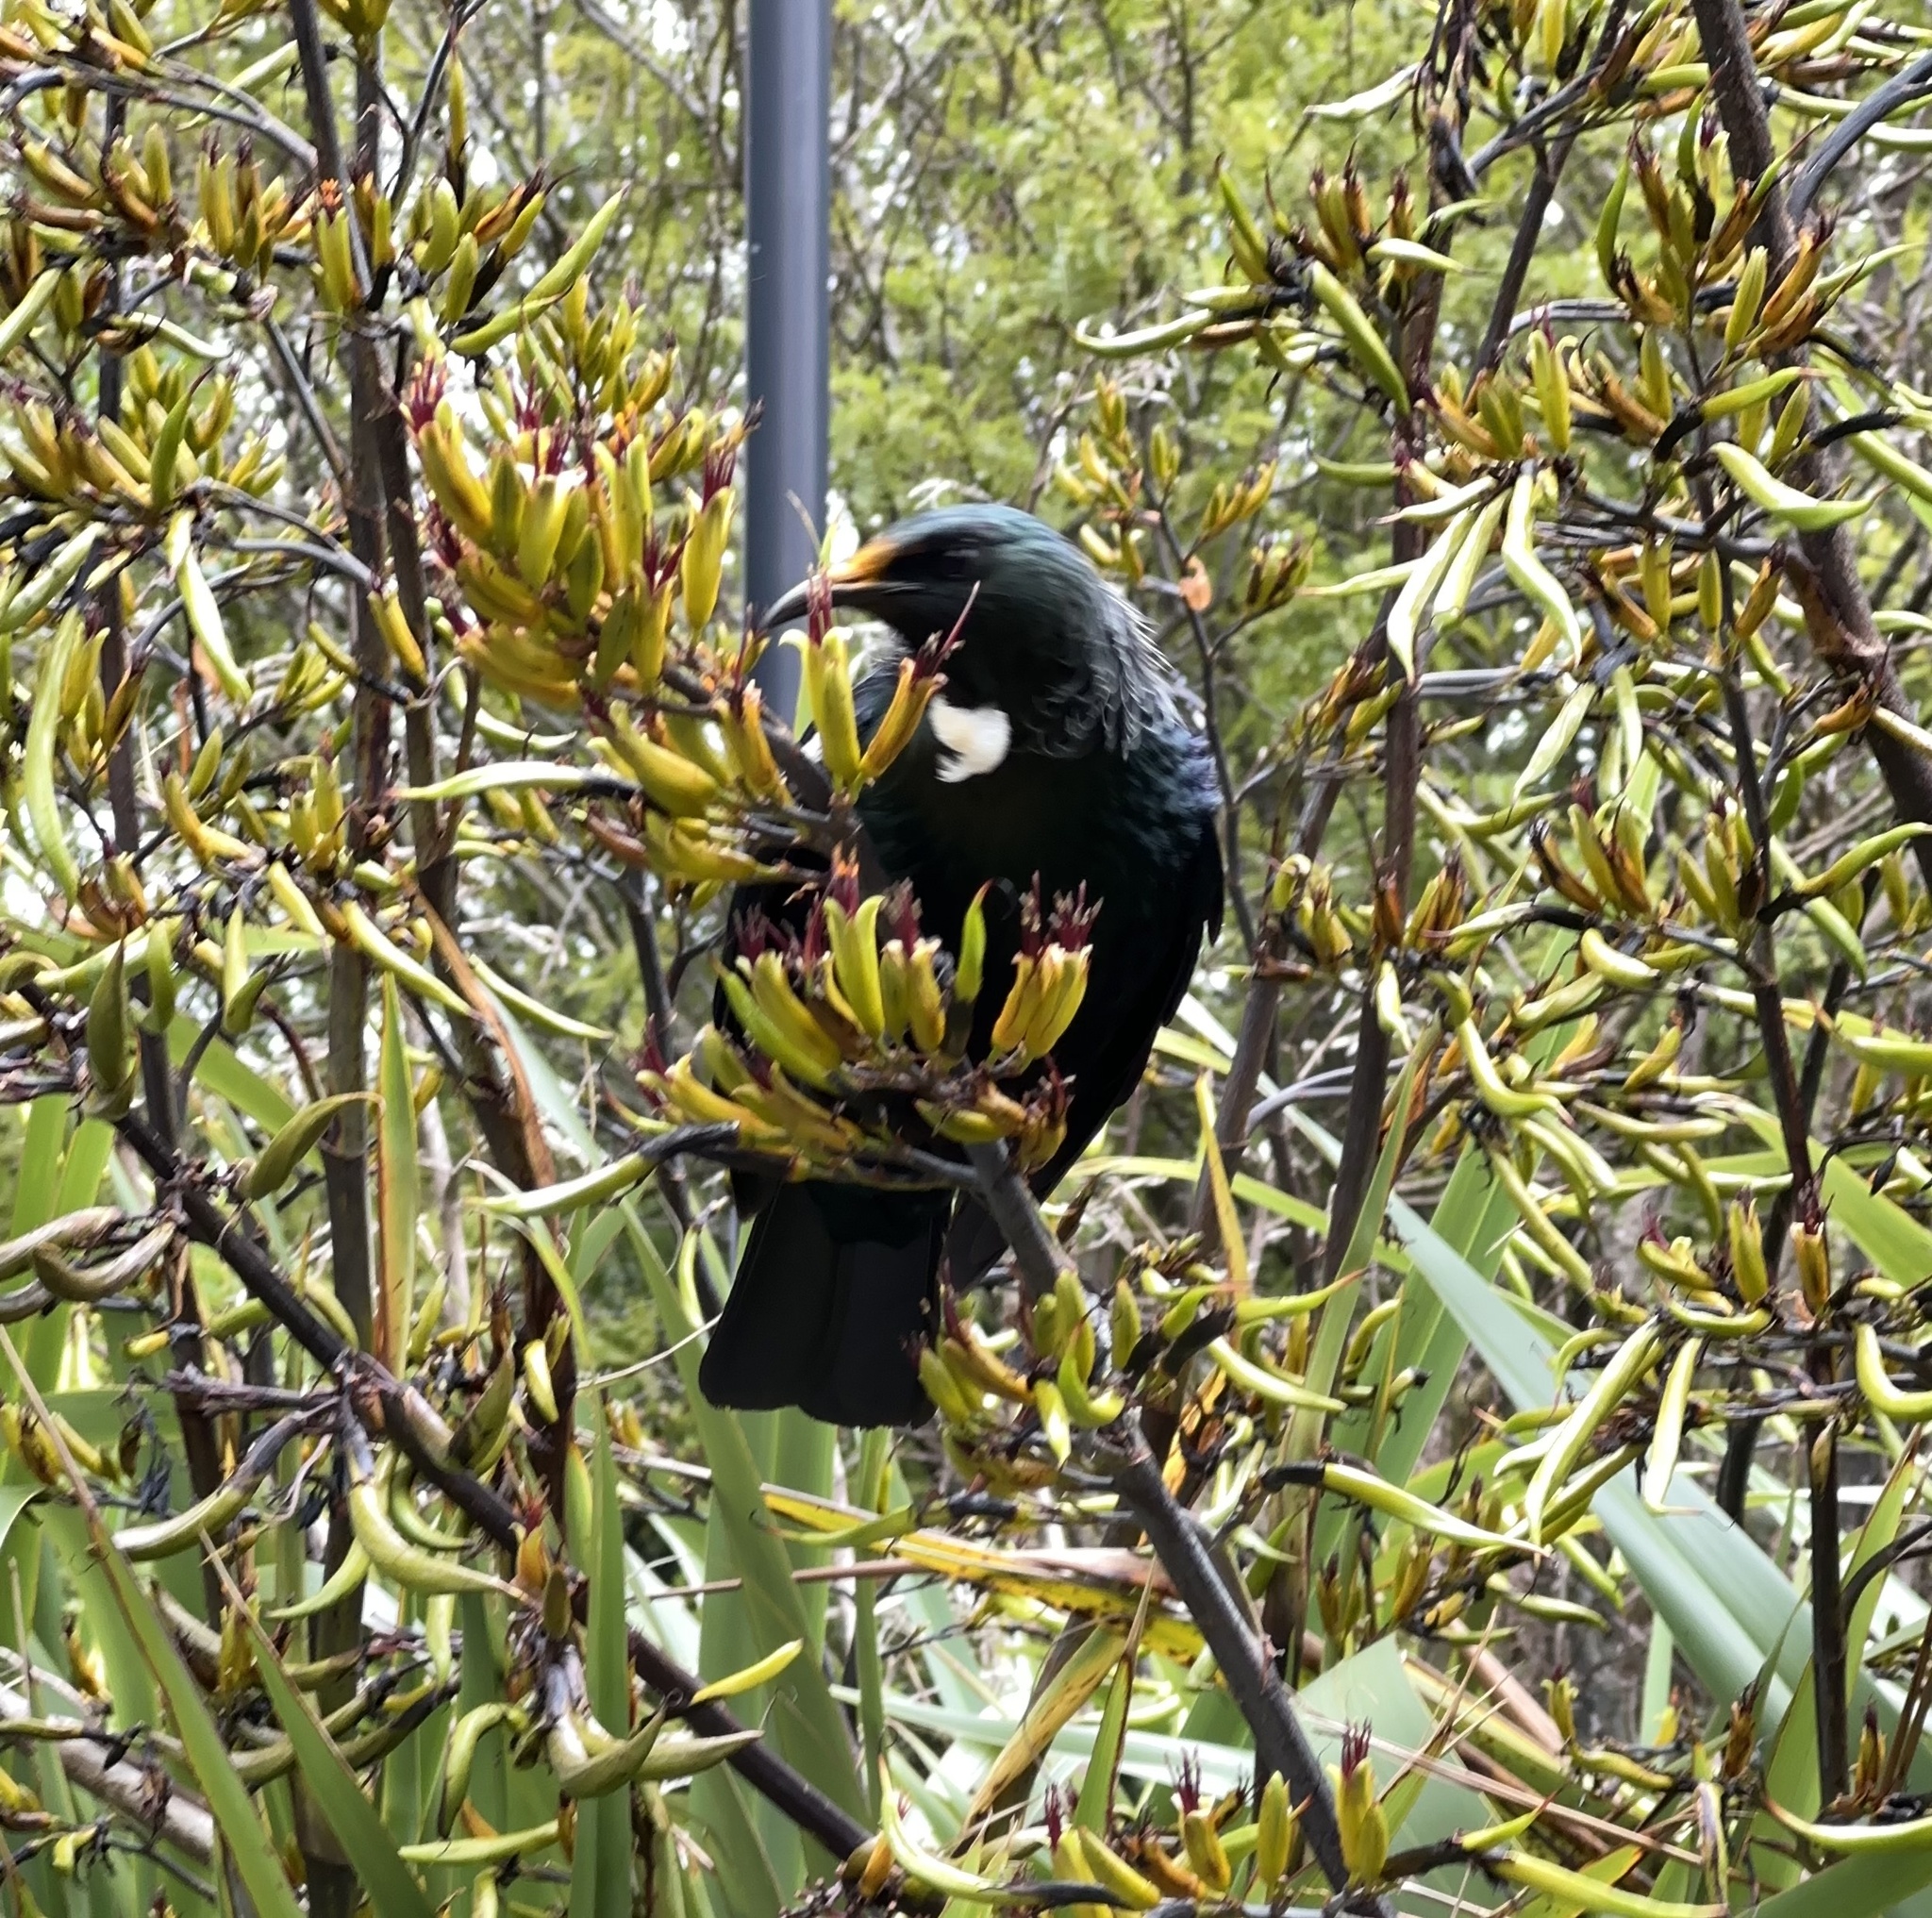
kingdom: Animalia
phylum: Chordata
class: Aves
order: Passeriformes
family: Meliphagidae
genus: Prosthemadera
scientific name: Prosthemadera novaeseelandiae
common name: Tui
